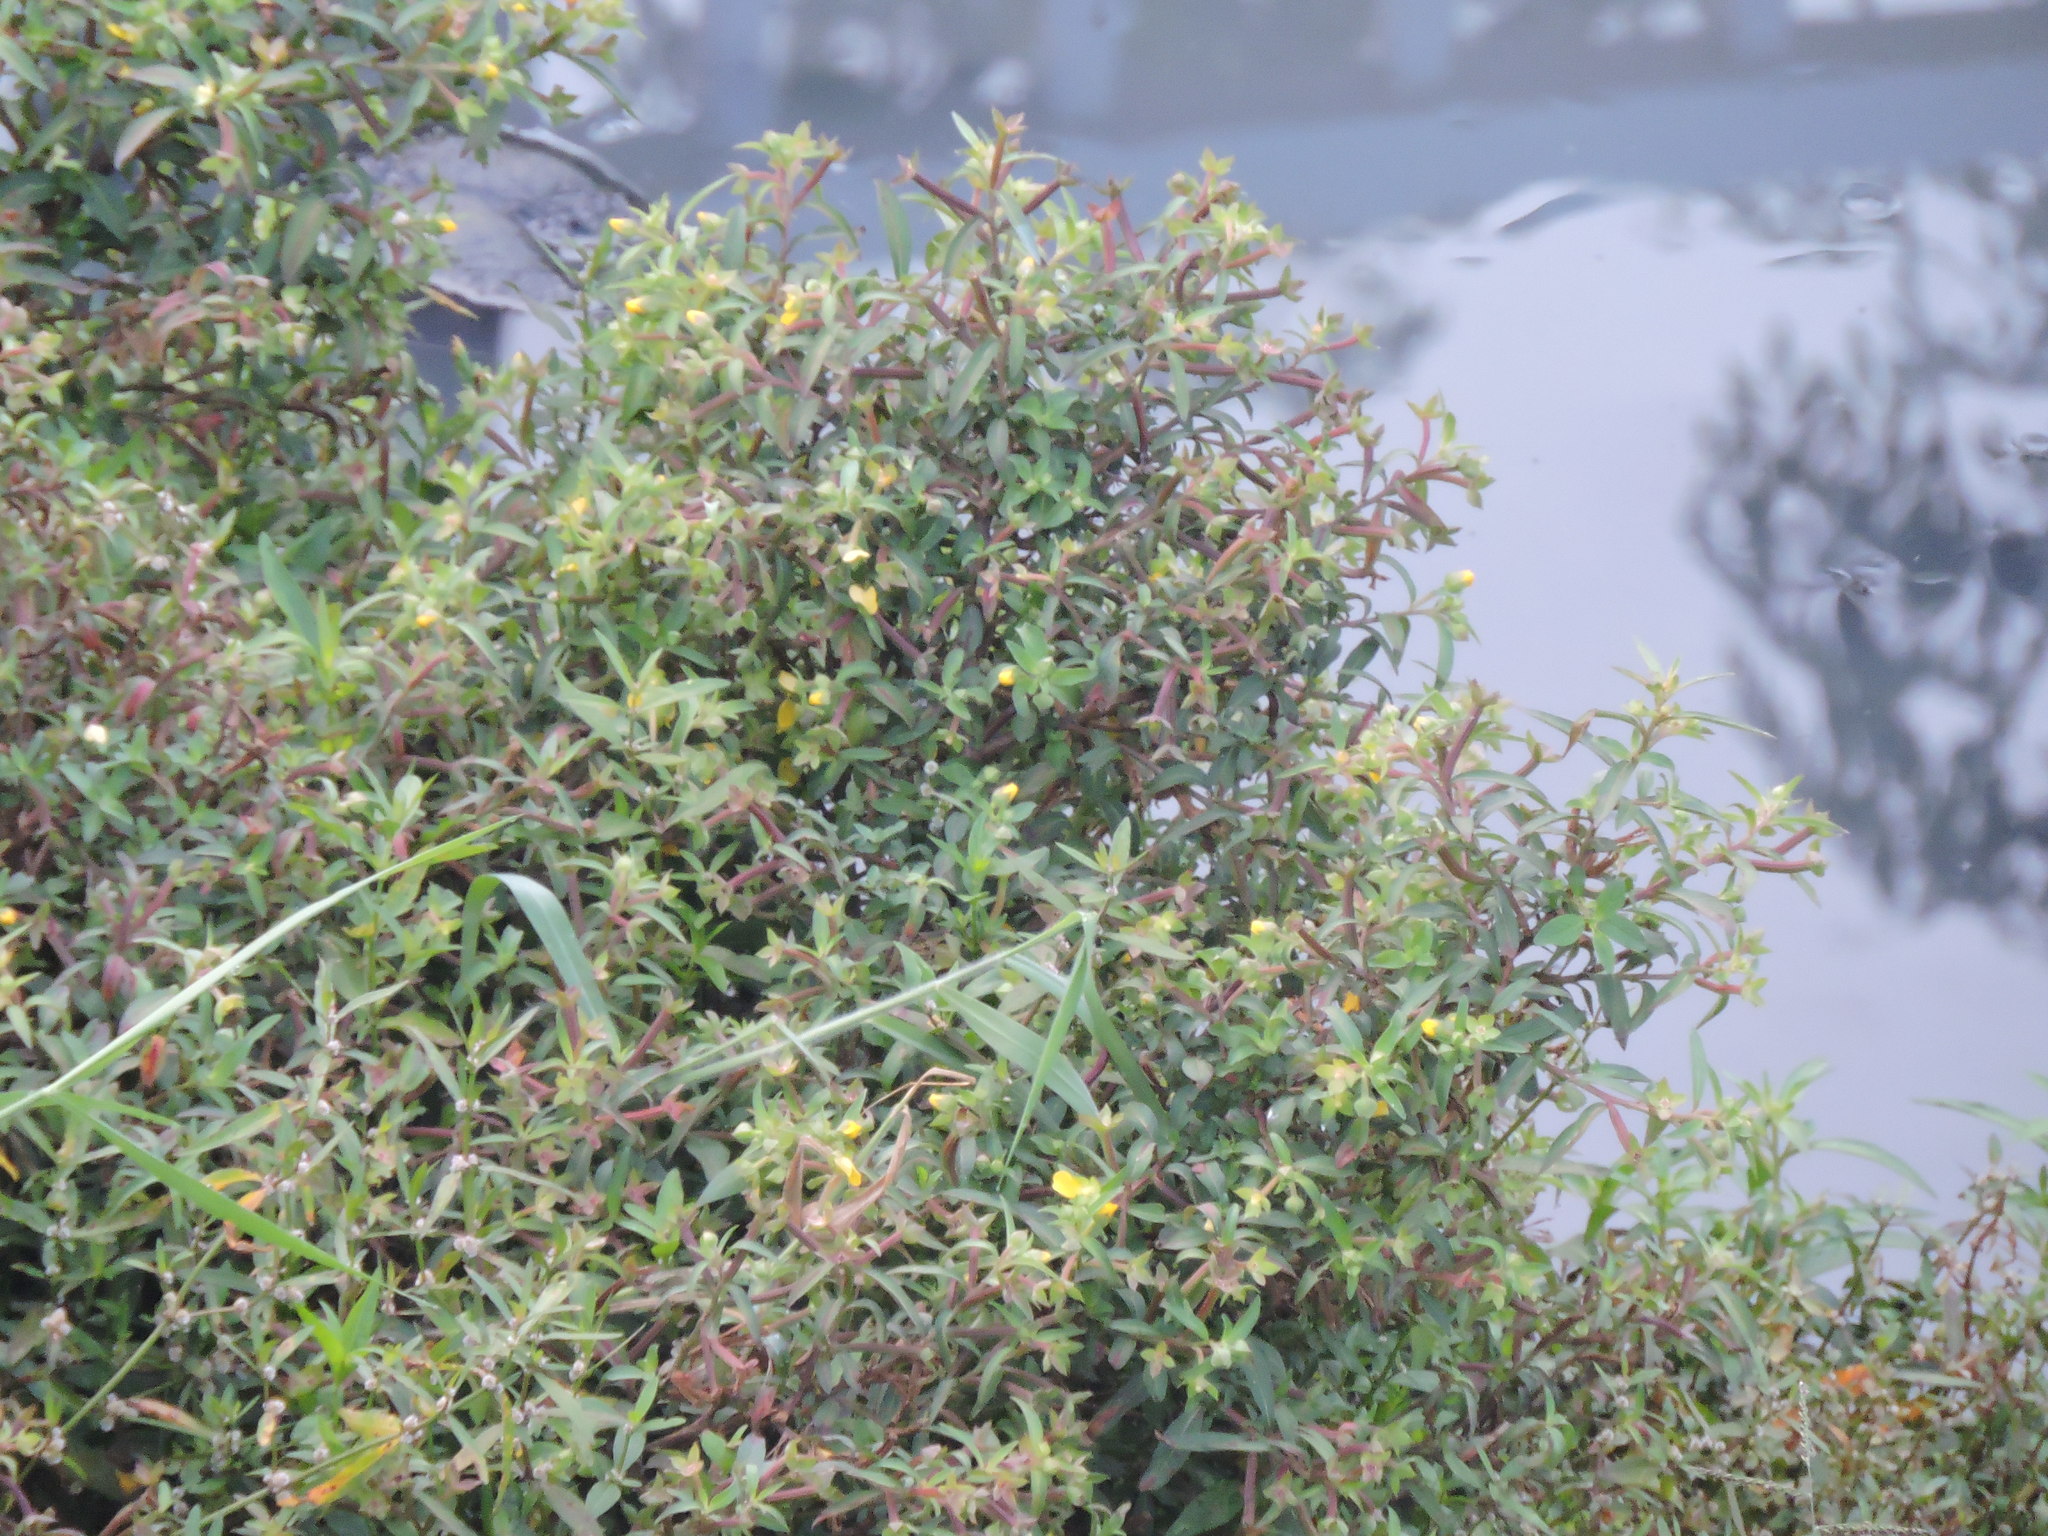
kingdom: Plantae
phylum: Tracheophyta
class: Magnoliopsida
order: Myrtales
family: Onagraceae
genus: Ludwigia
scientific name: Ludwigia octovalvis
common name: Water-primrose
